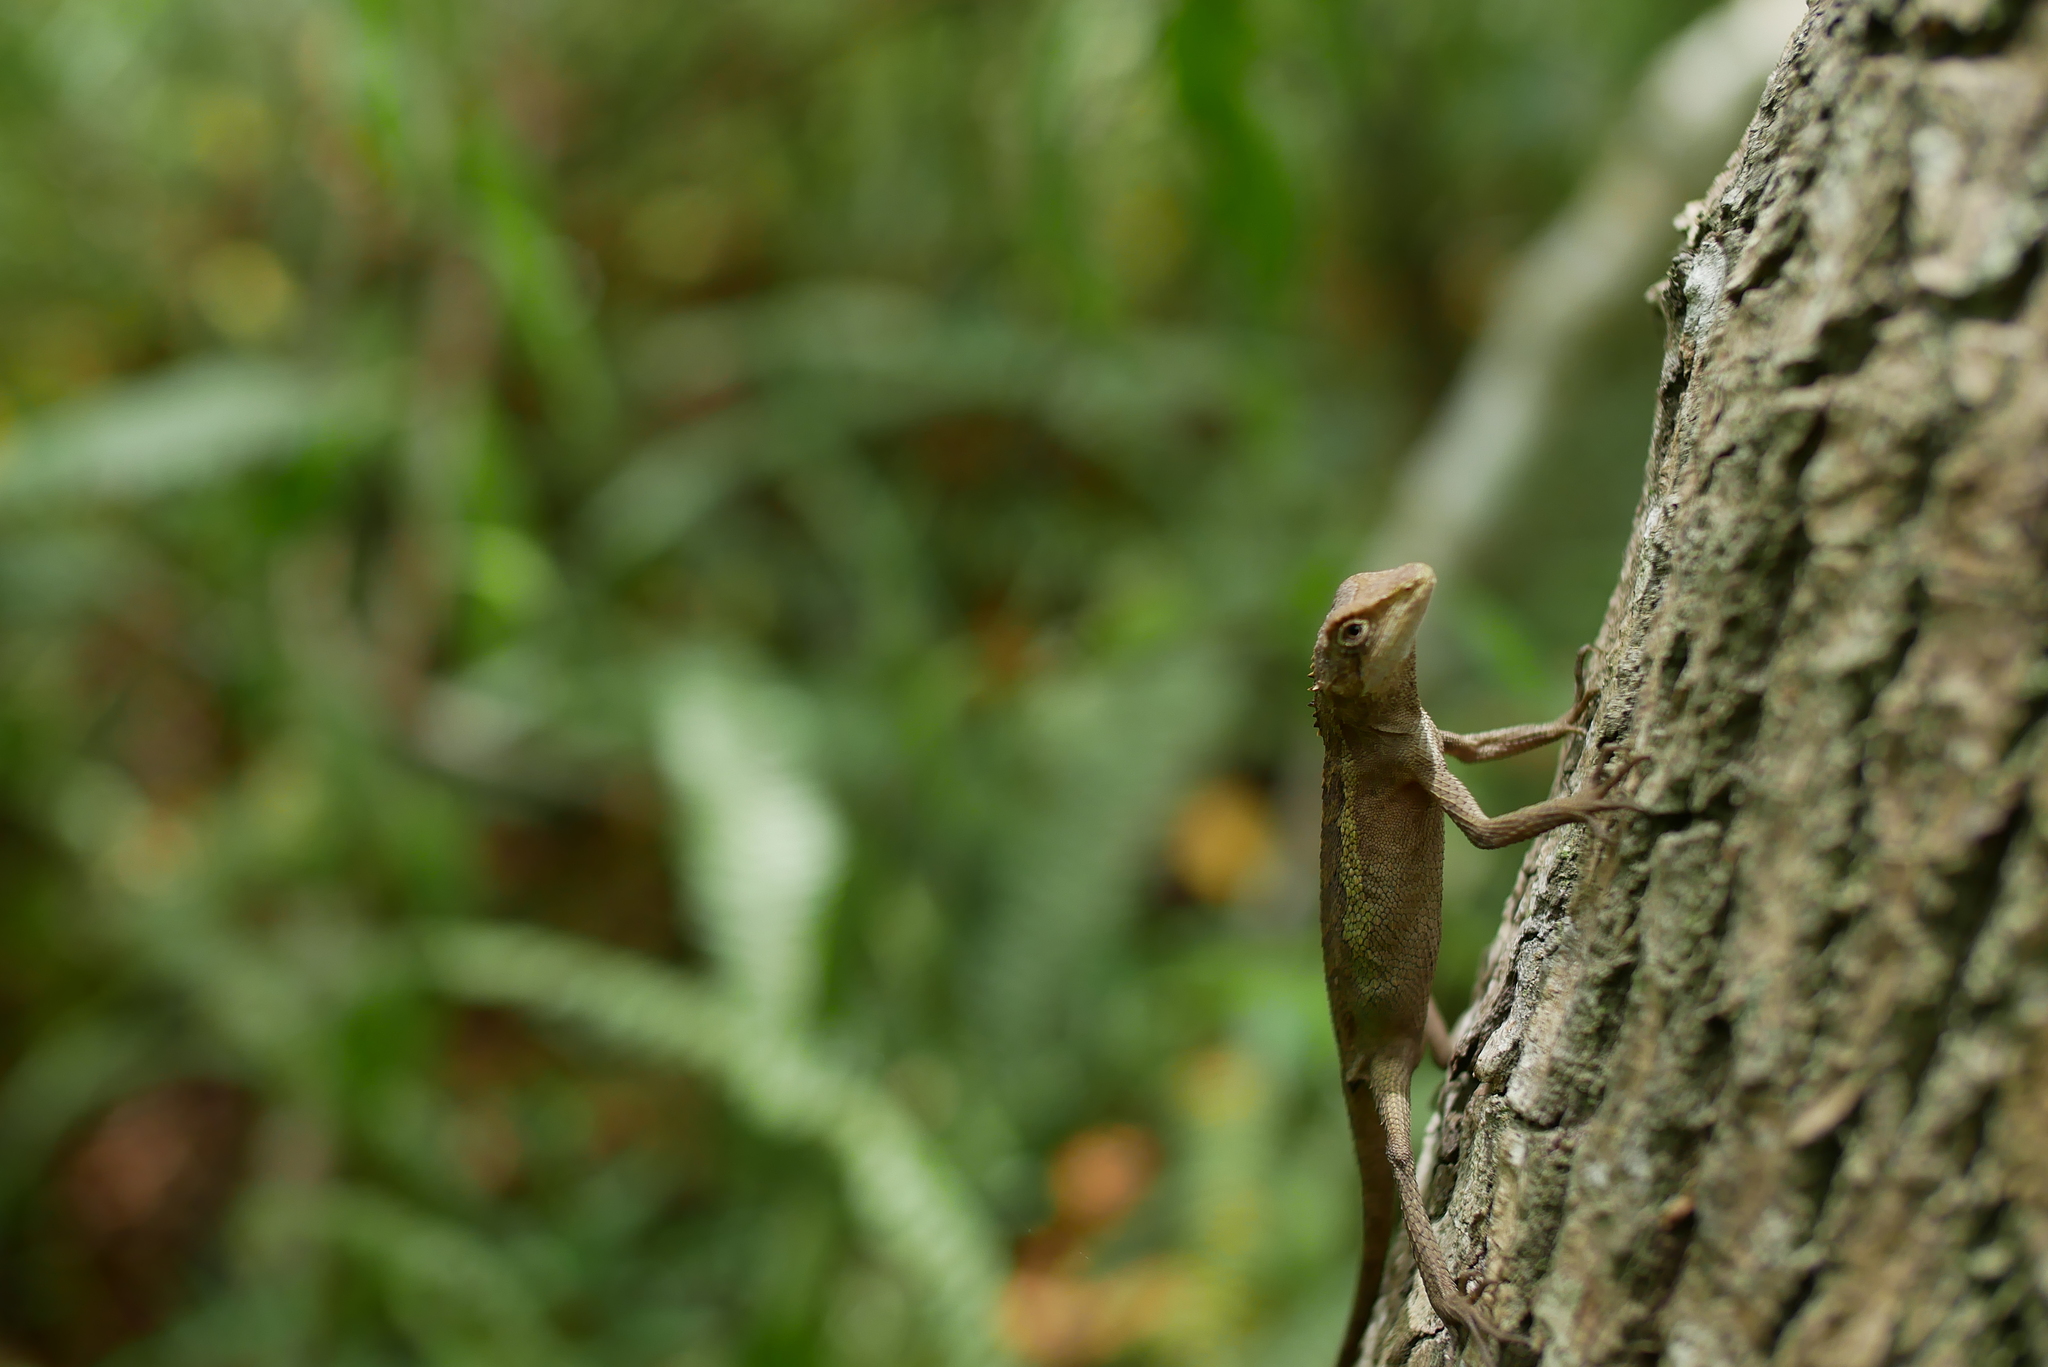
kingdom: Animalia
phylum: Chordata
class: Squamata
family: Agamidae
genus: Diploderma
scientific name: Diploderma swinhonis
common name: Taiwan japalure
